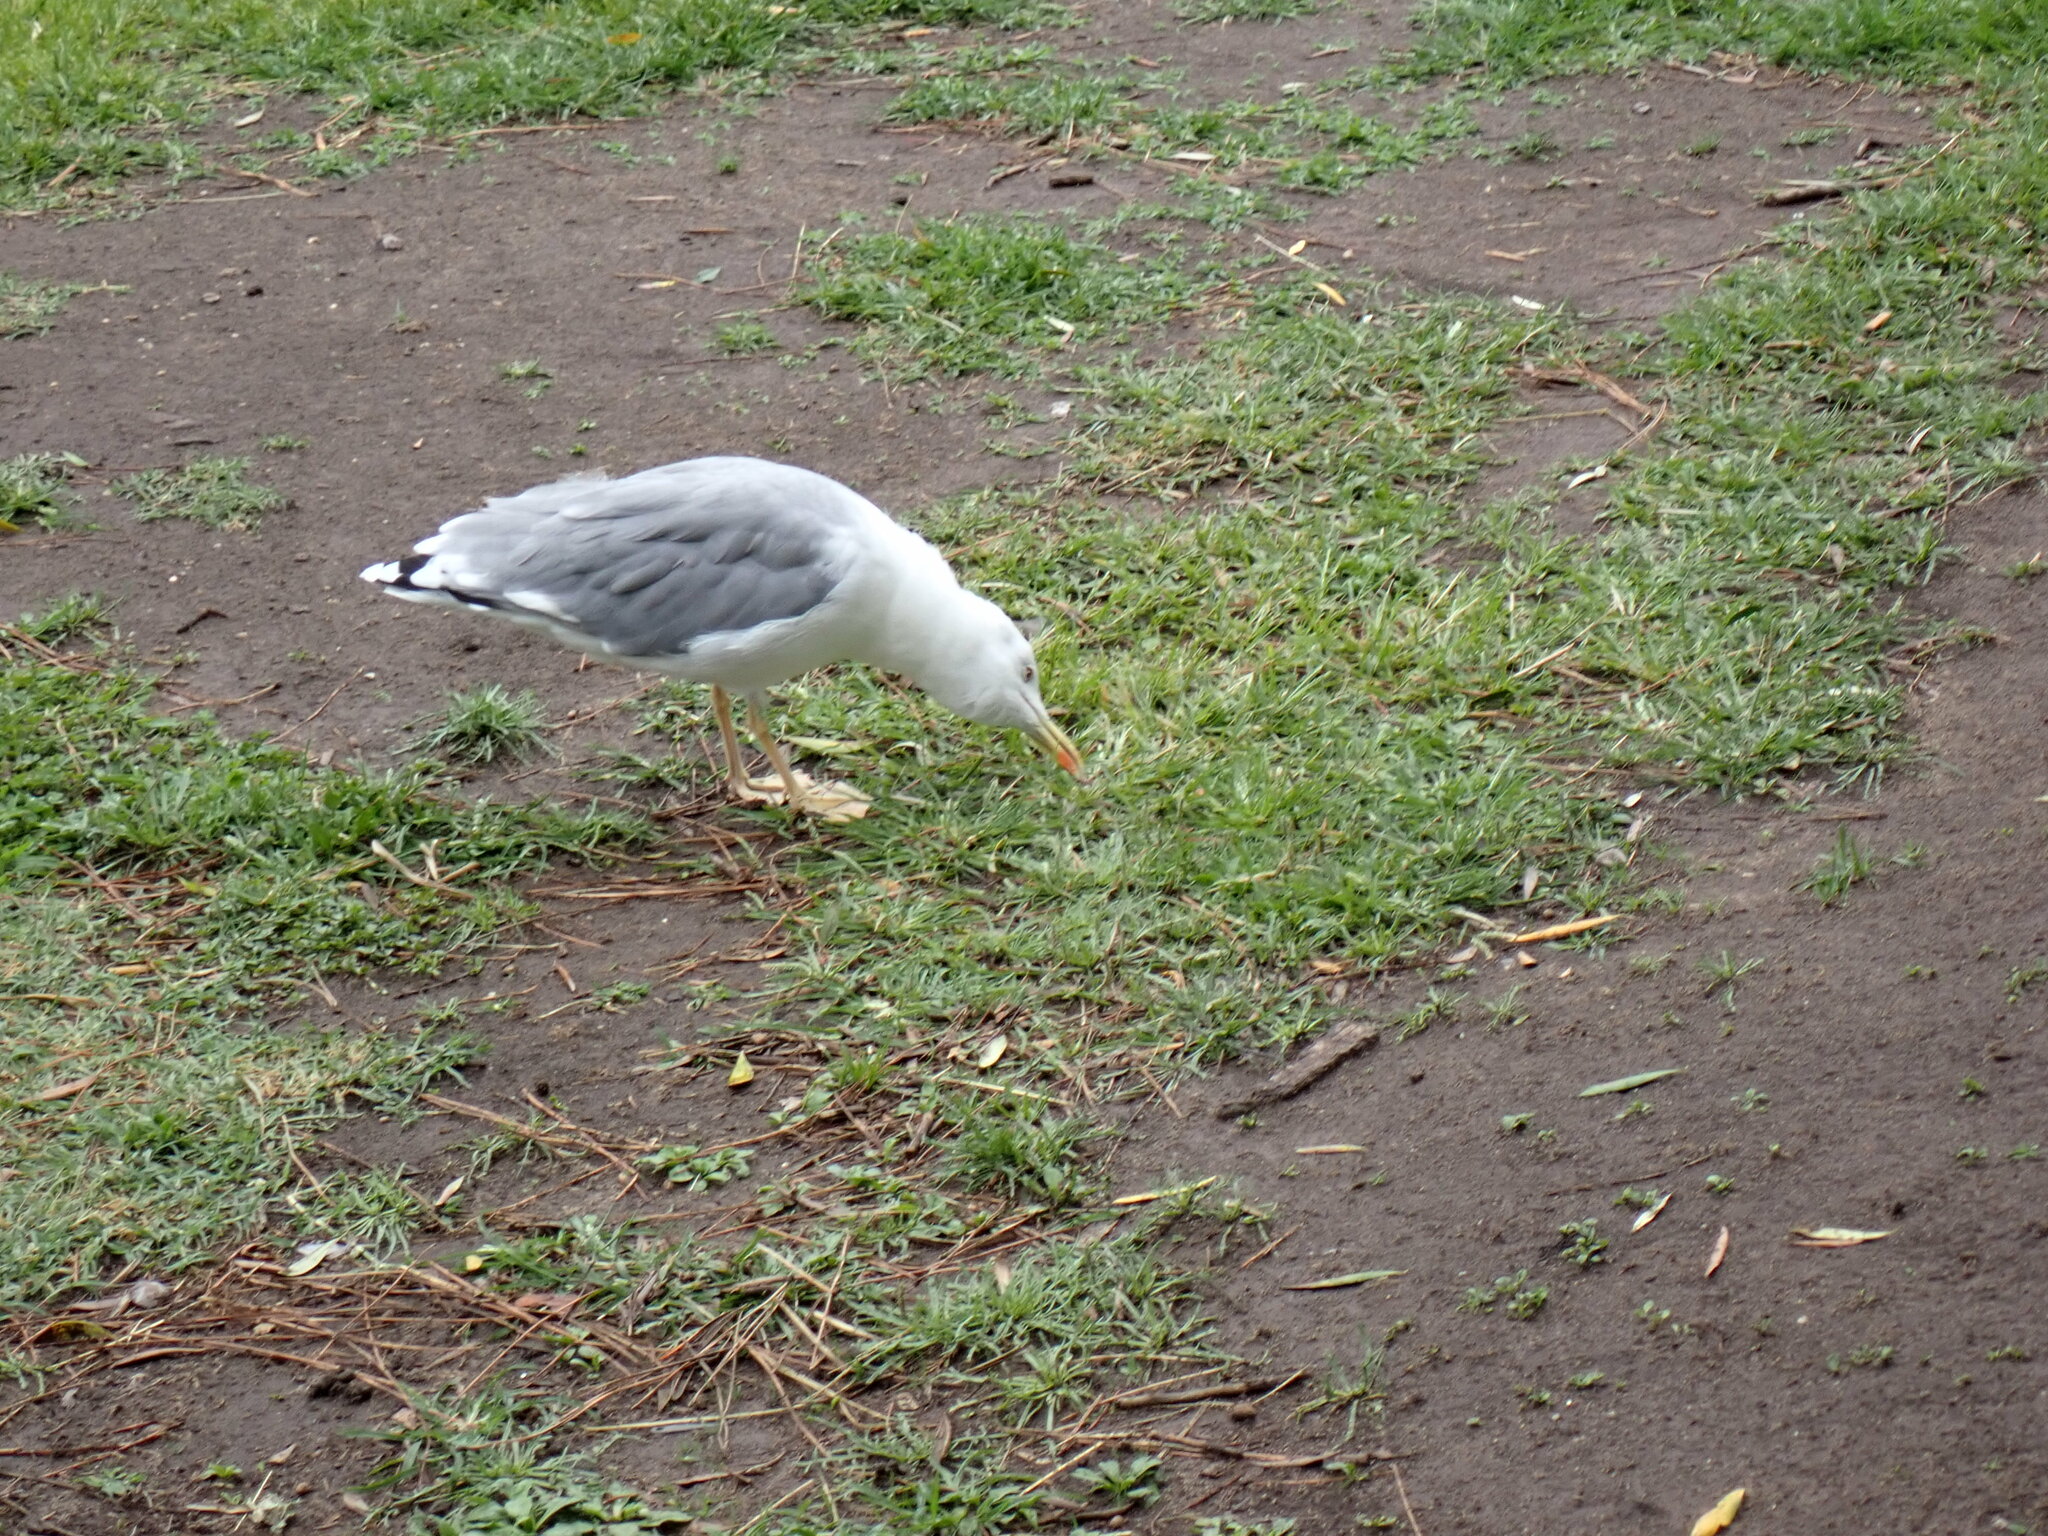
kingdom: Animalia
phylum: Chordata
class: Aves
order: Charadriiformes
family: Laridae
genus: Larus
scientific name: Larus michahellis
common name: Yellow-legged gull
